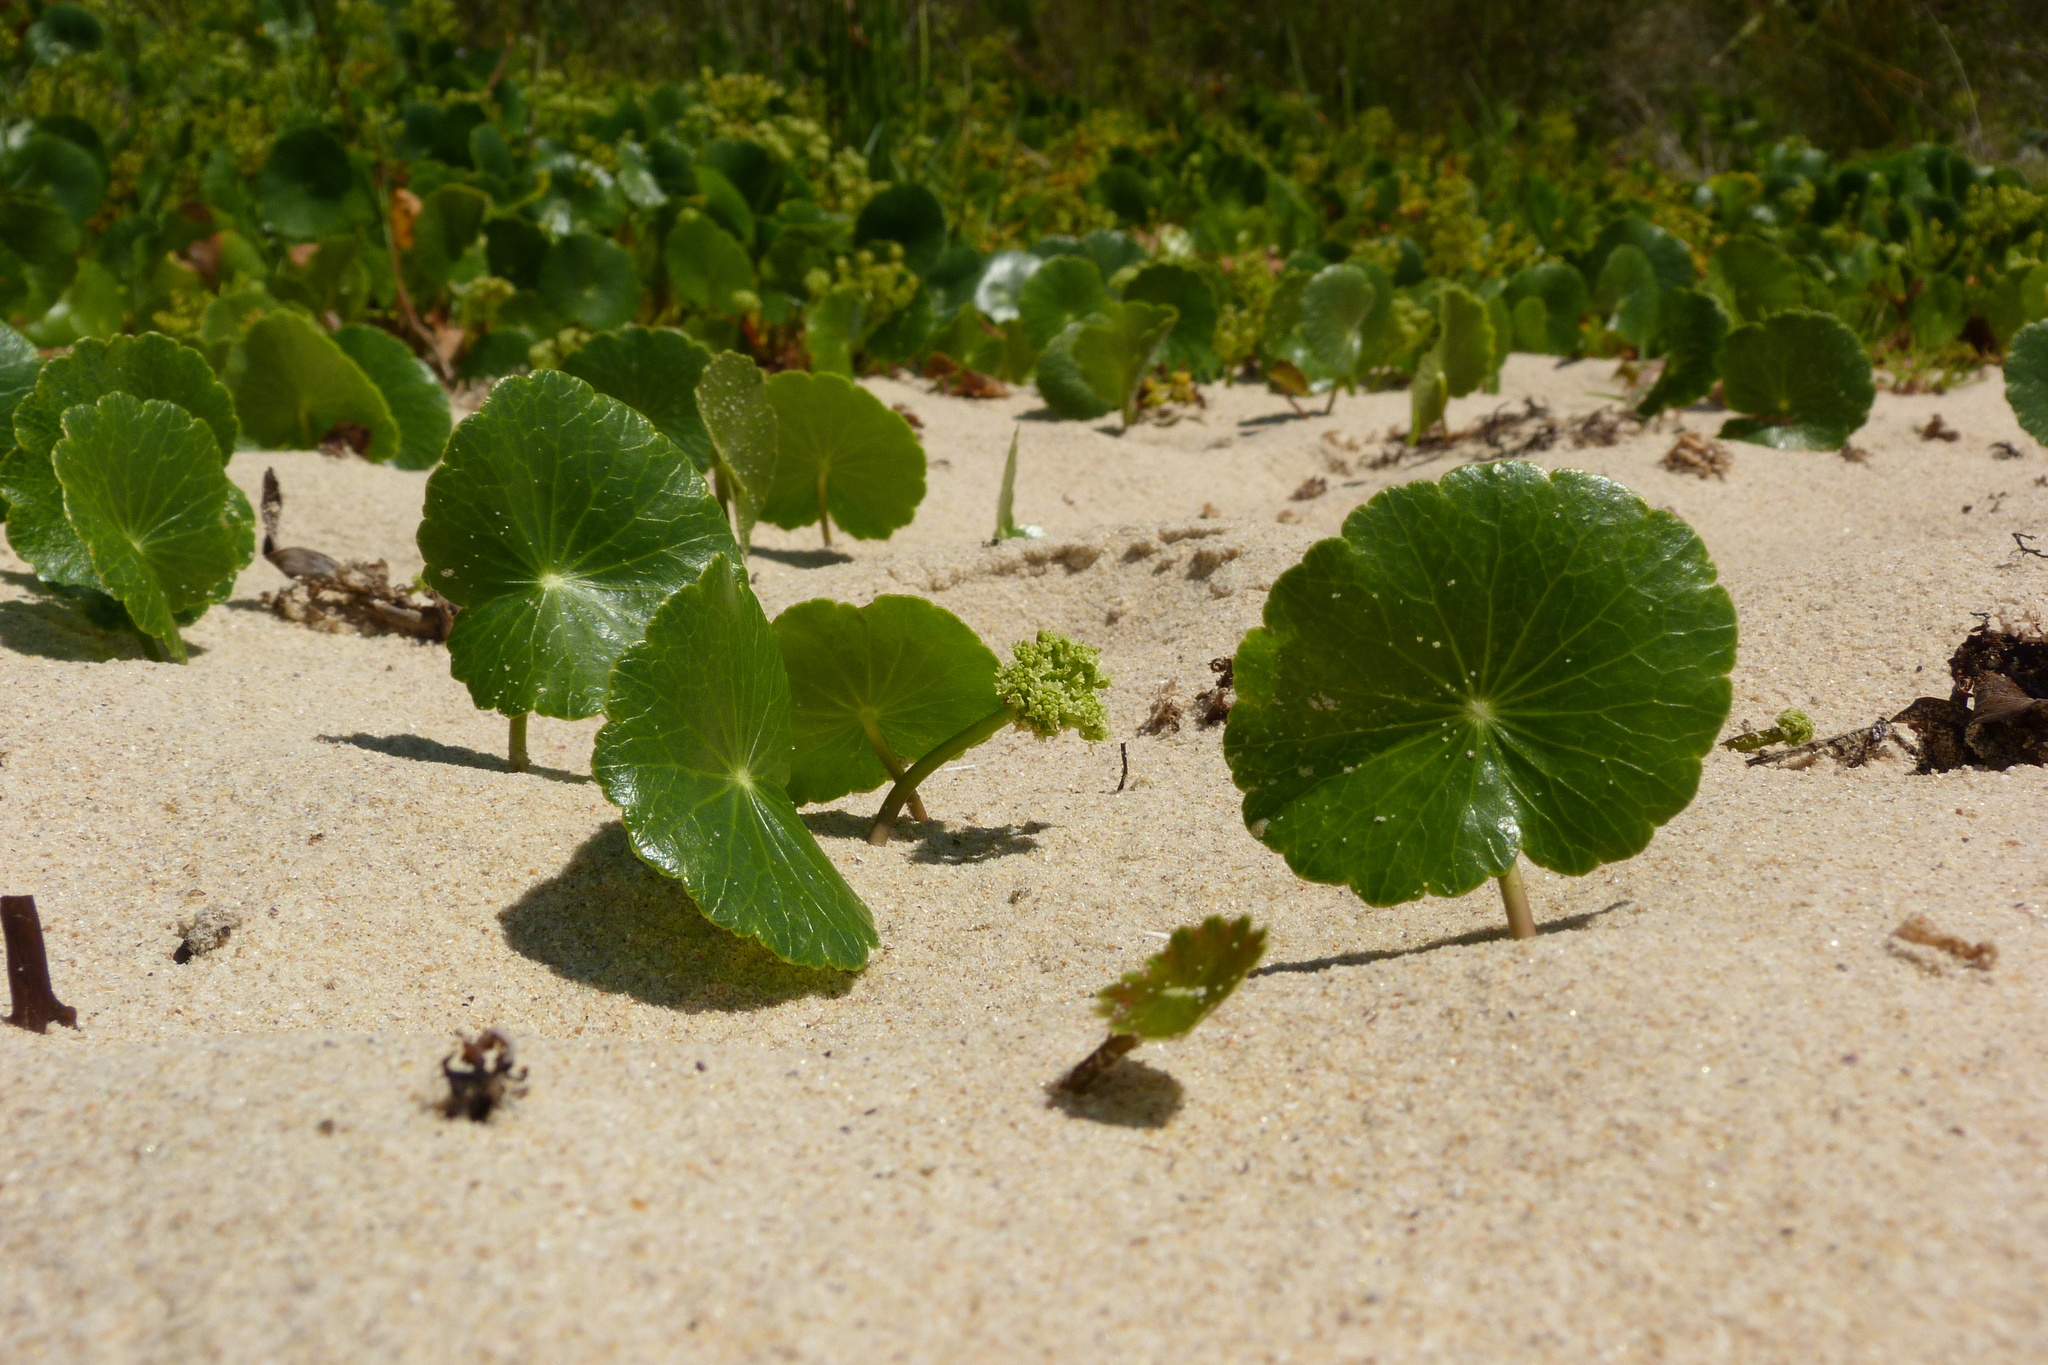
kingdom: Plantae
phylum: Tracheophyta
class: Magnoliopsida
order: Apiales
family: Araliaceae
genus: Hydrocotyle
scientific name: Hydrocotyle bonariensis
